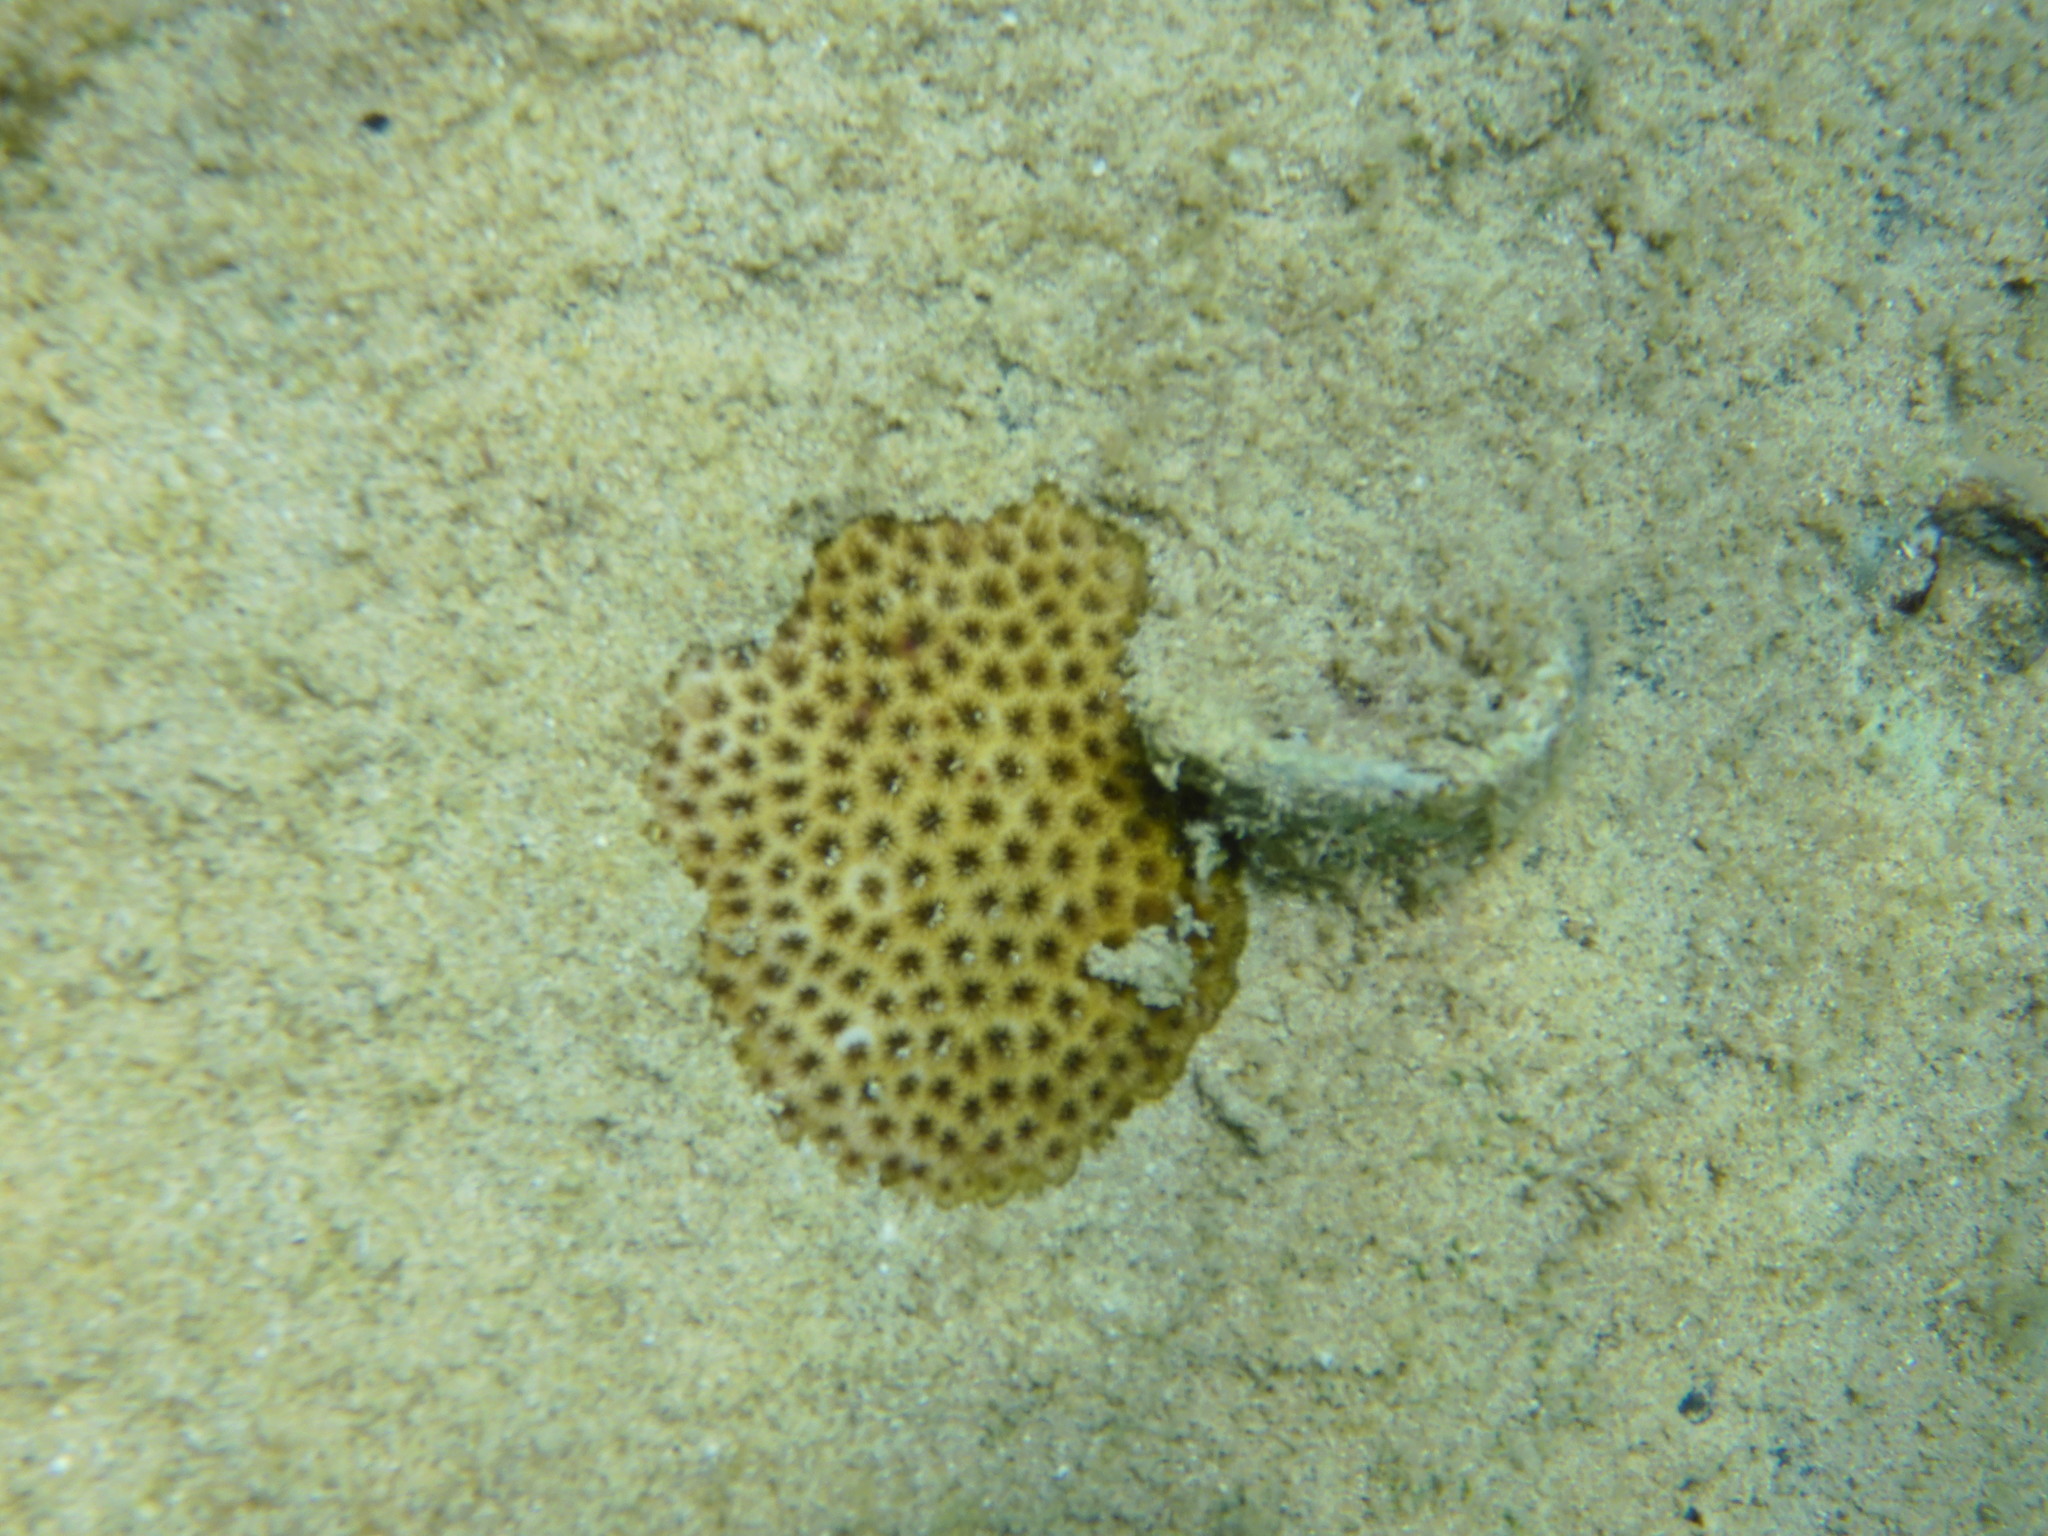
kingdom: Animalia
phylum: Cnidaria
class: Anthozoa
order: Scleractinia
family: Rhizangiidae
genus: Siderastrea
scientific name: Siderastrea radians
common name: Lesser starlet coral
